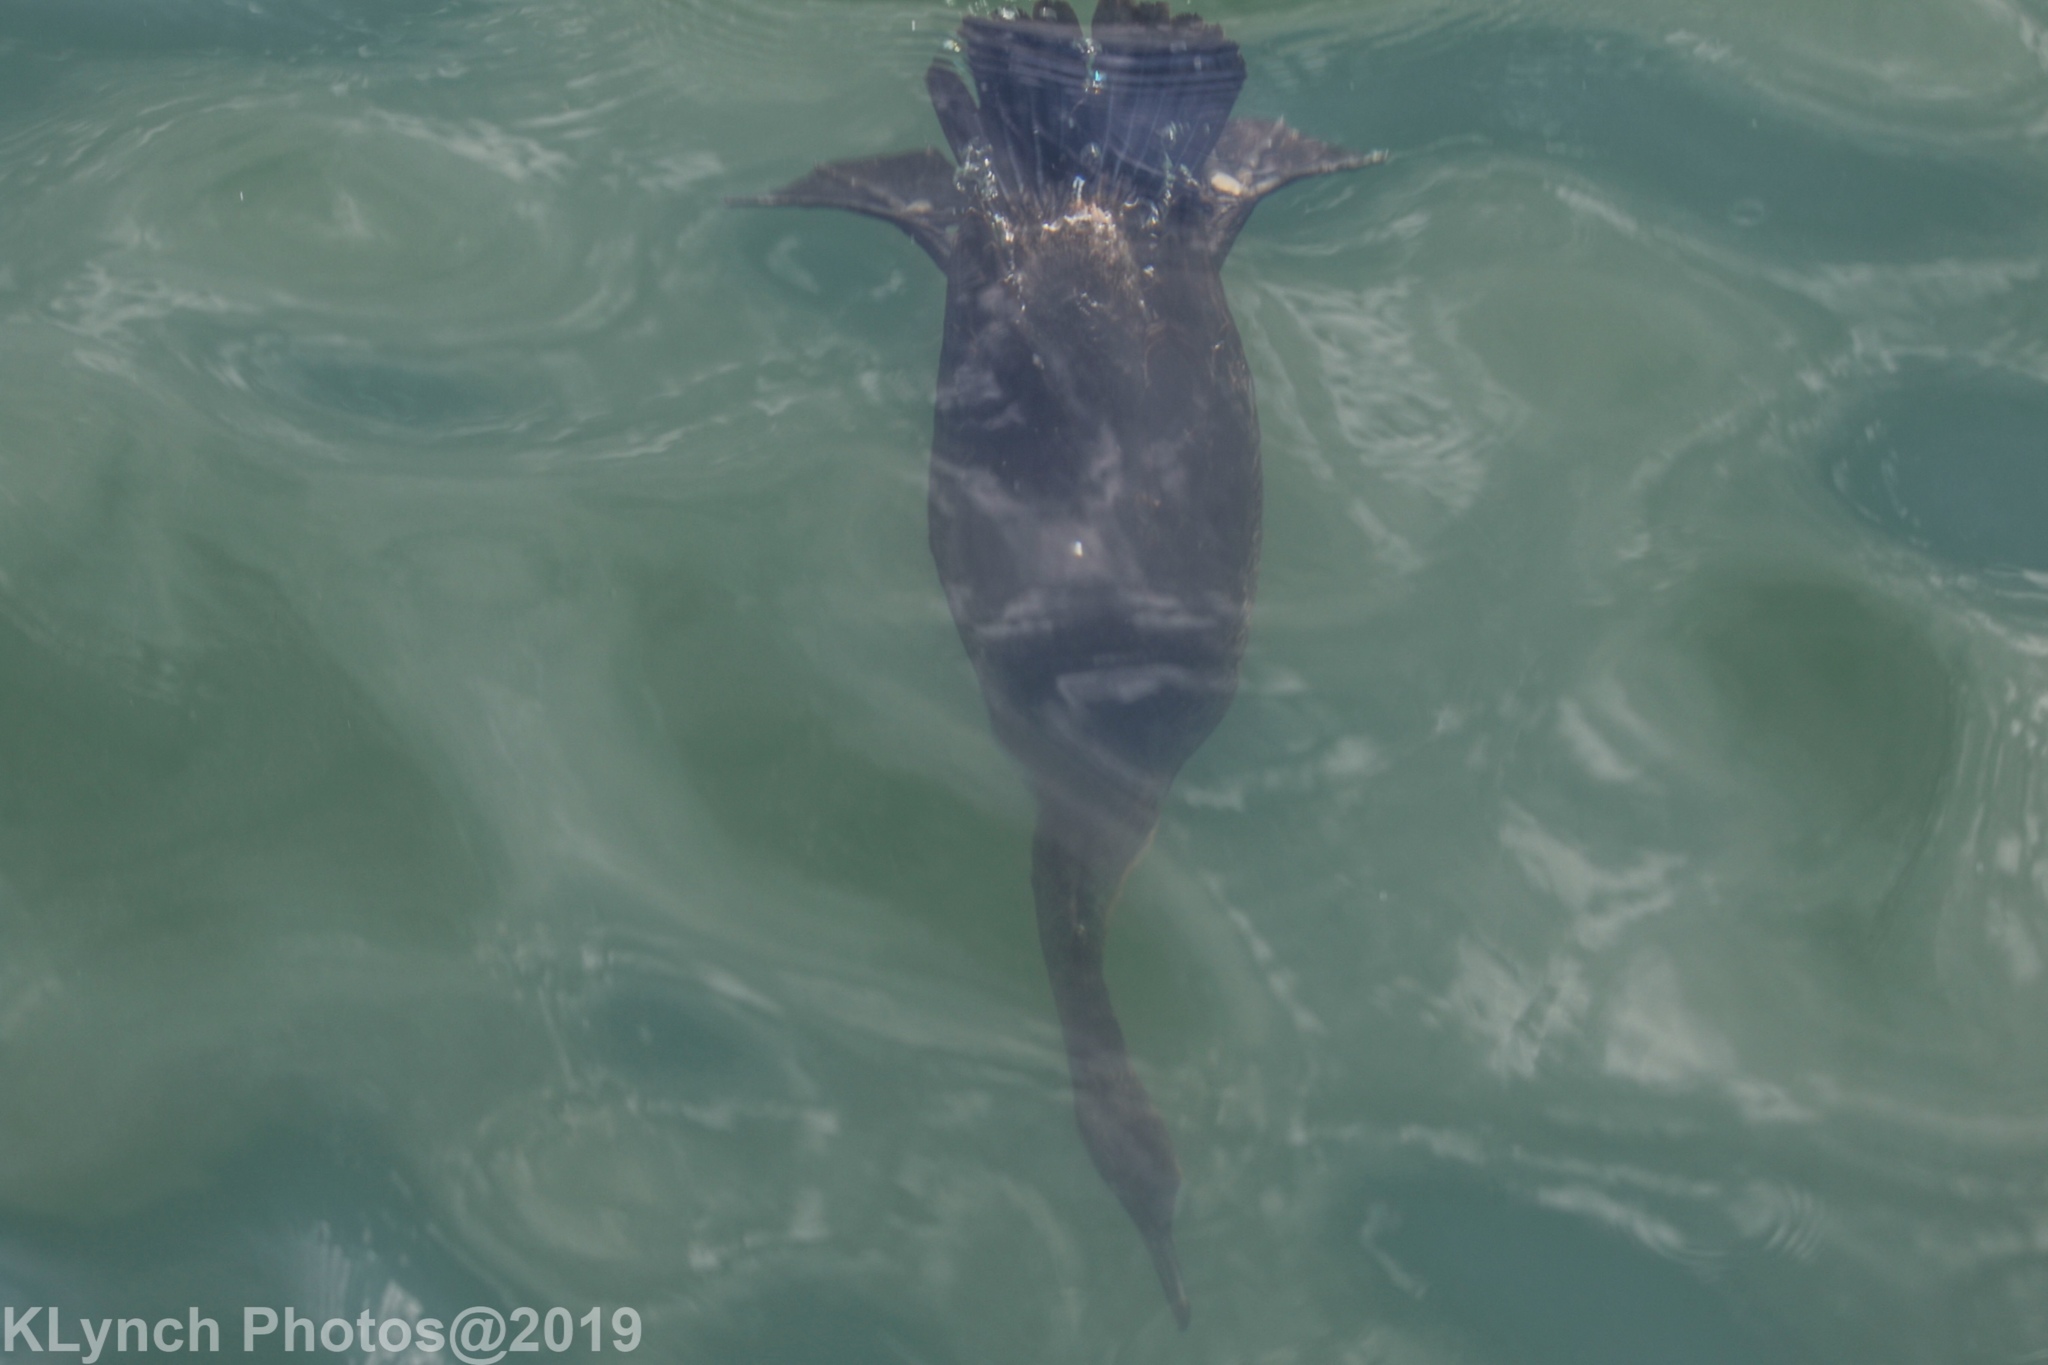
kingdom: Animalia
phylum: Chordata
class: Aves
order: Suliformes
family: Phalacrocoracidae
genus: Phalacrocorax
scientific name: Phalacrocorax auritus
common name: Double-crested cormorant
